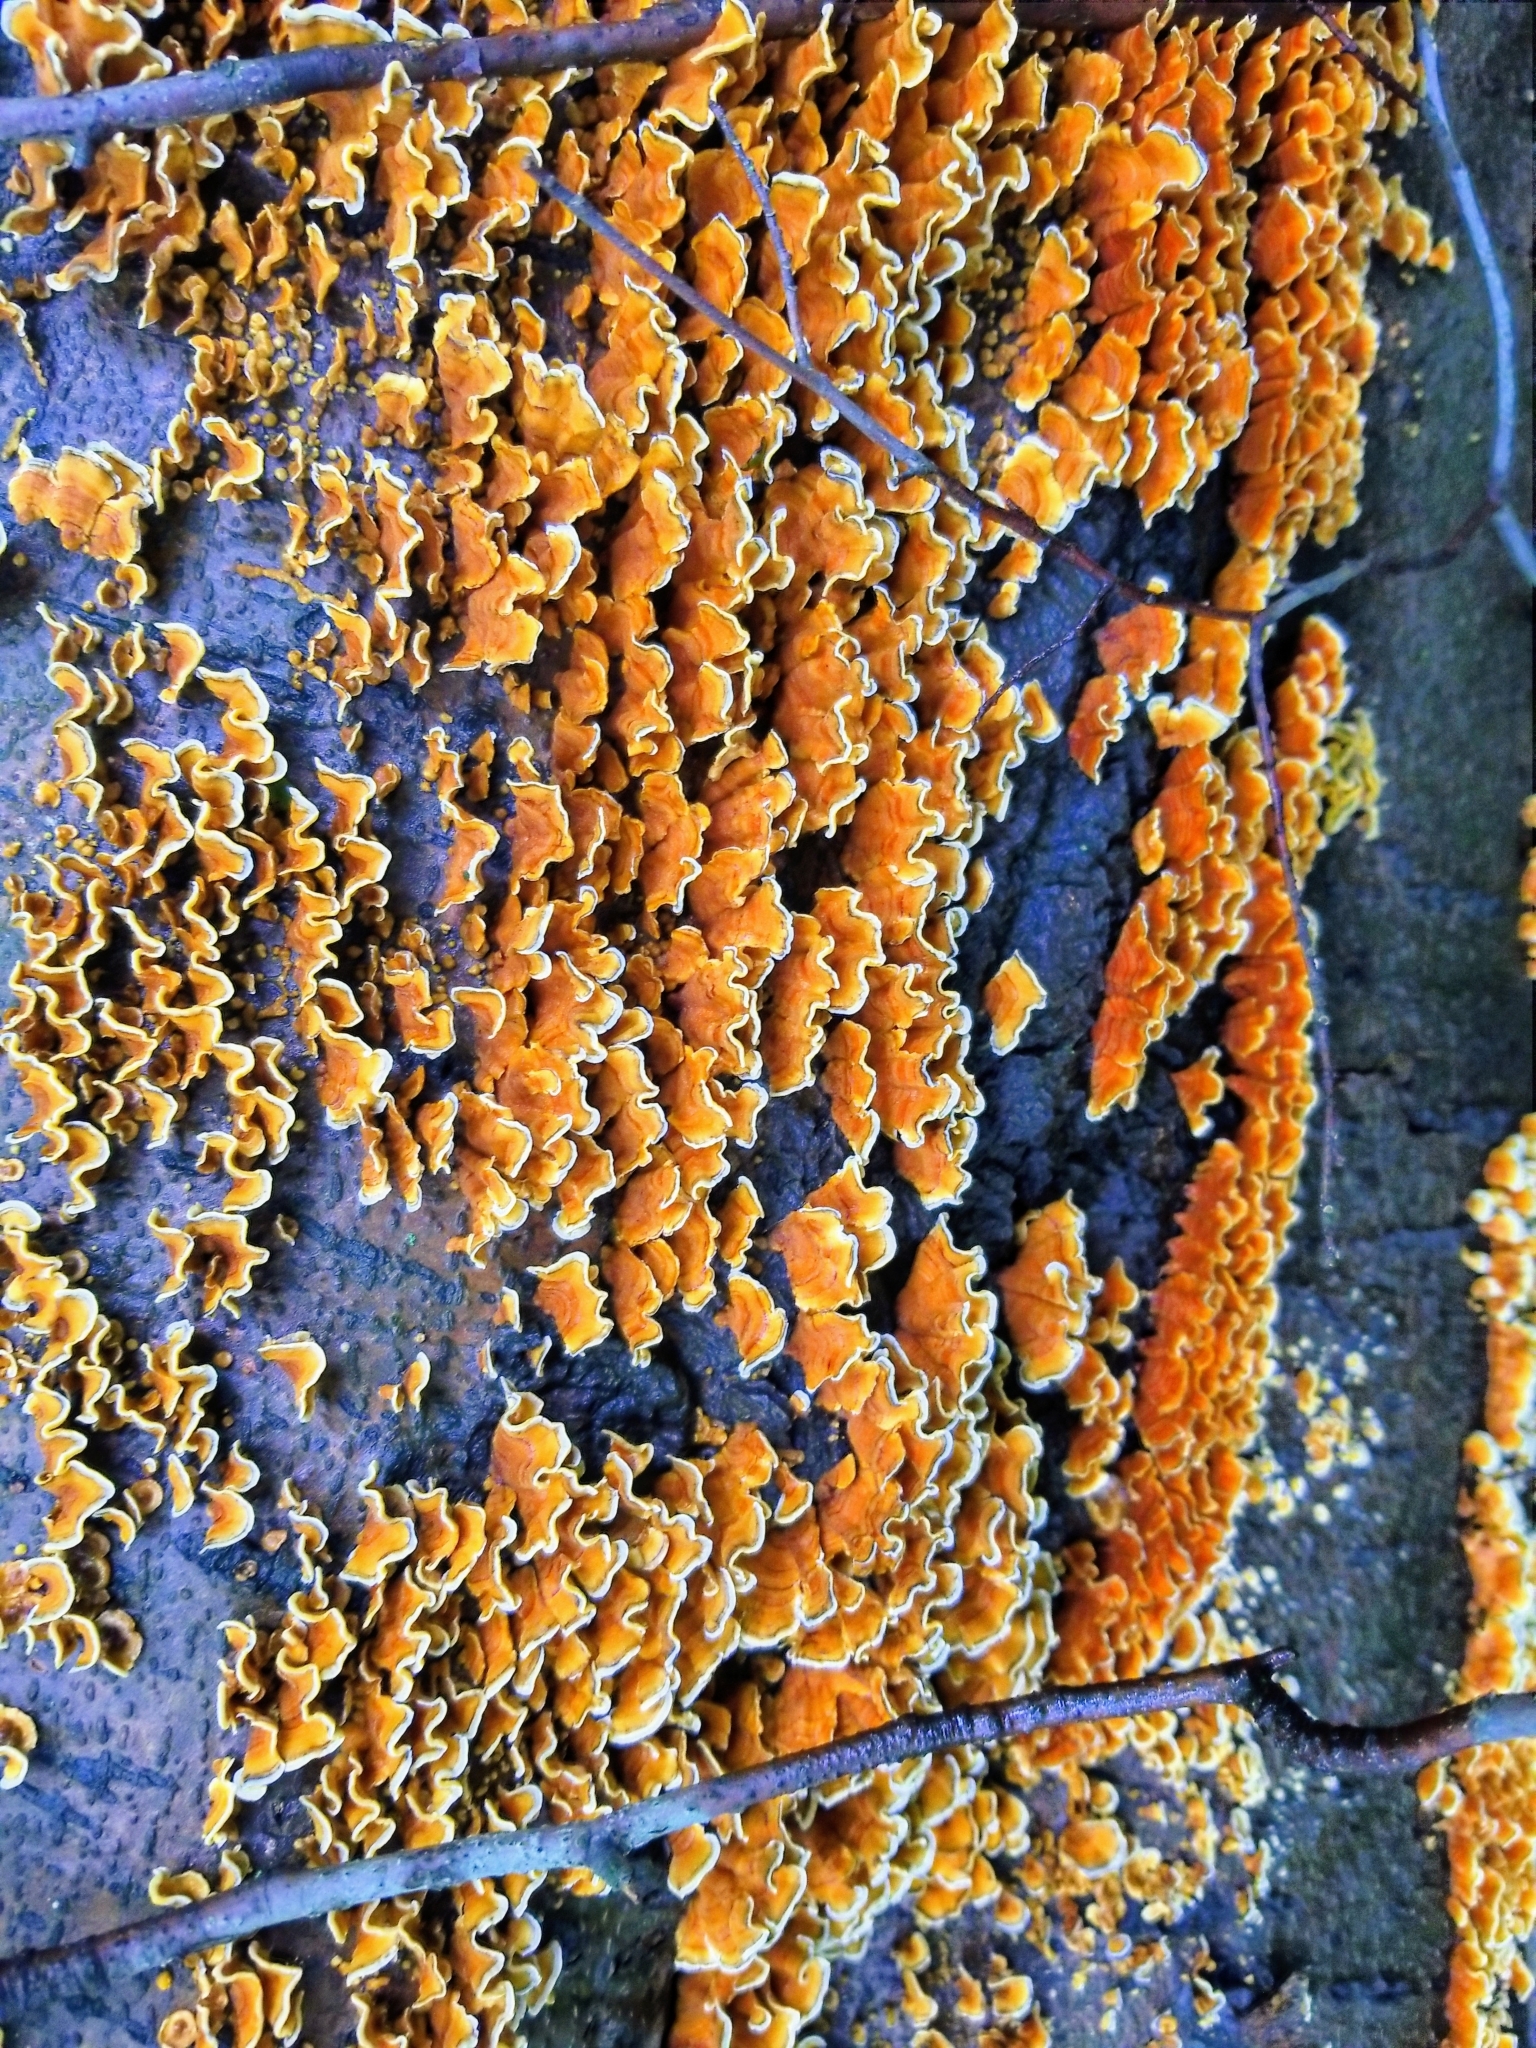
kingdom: Fungi
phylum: Basidiomycota
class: Agaricomycetes
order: Russulales
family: Stereaceae
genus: Stereum
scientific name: Stereum complicatum
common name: Crowded parchment
